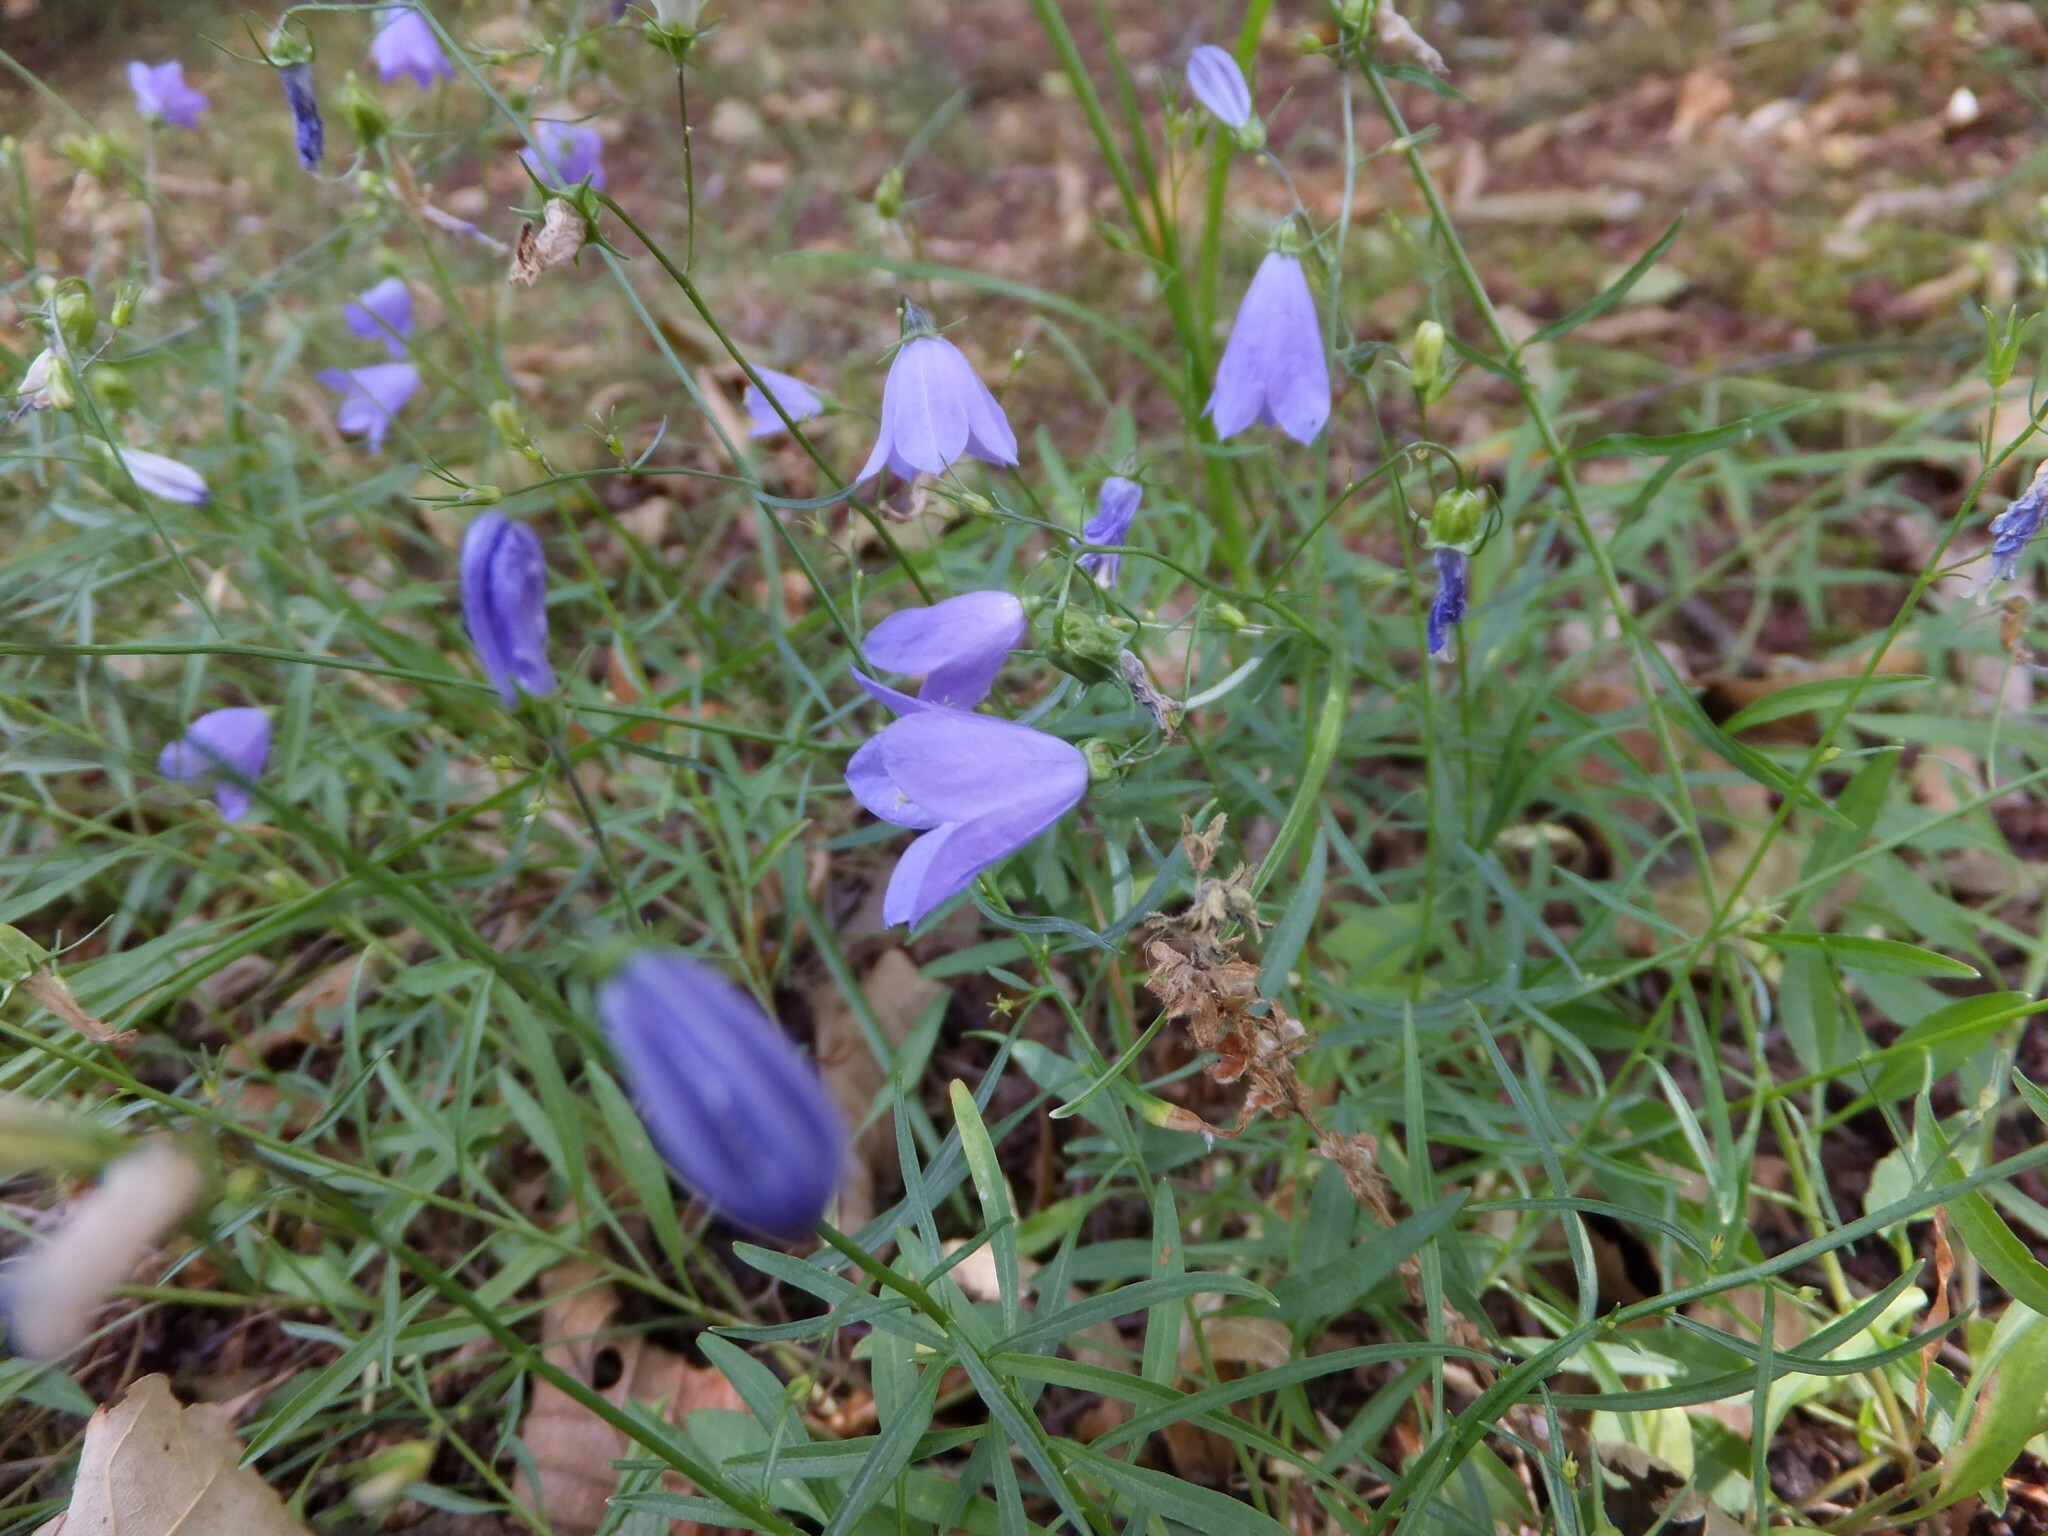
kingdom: Plantae
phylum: Tracheophyta
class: Magnoliopsida
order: Asterales
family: Campanulaceae
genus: Campanula
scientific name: Campanula rotundifolia
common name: Harebell
